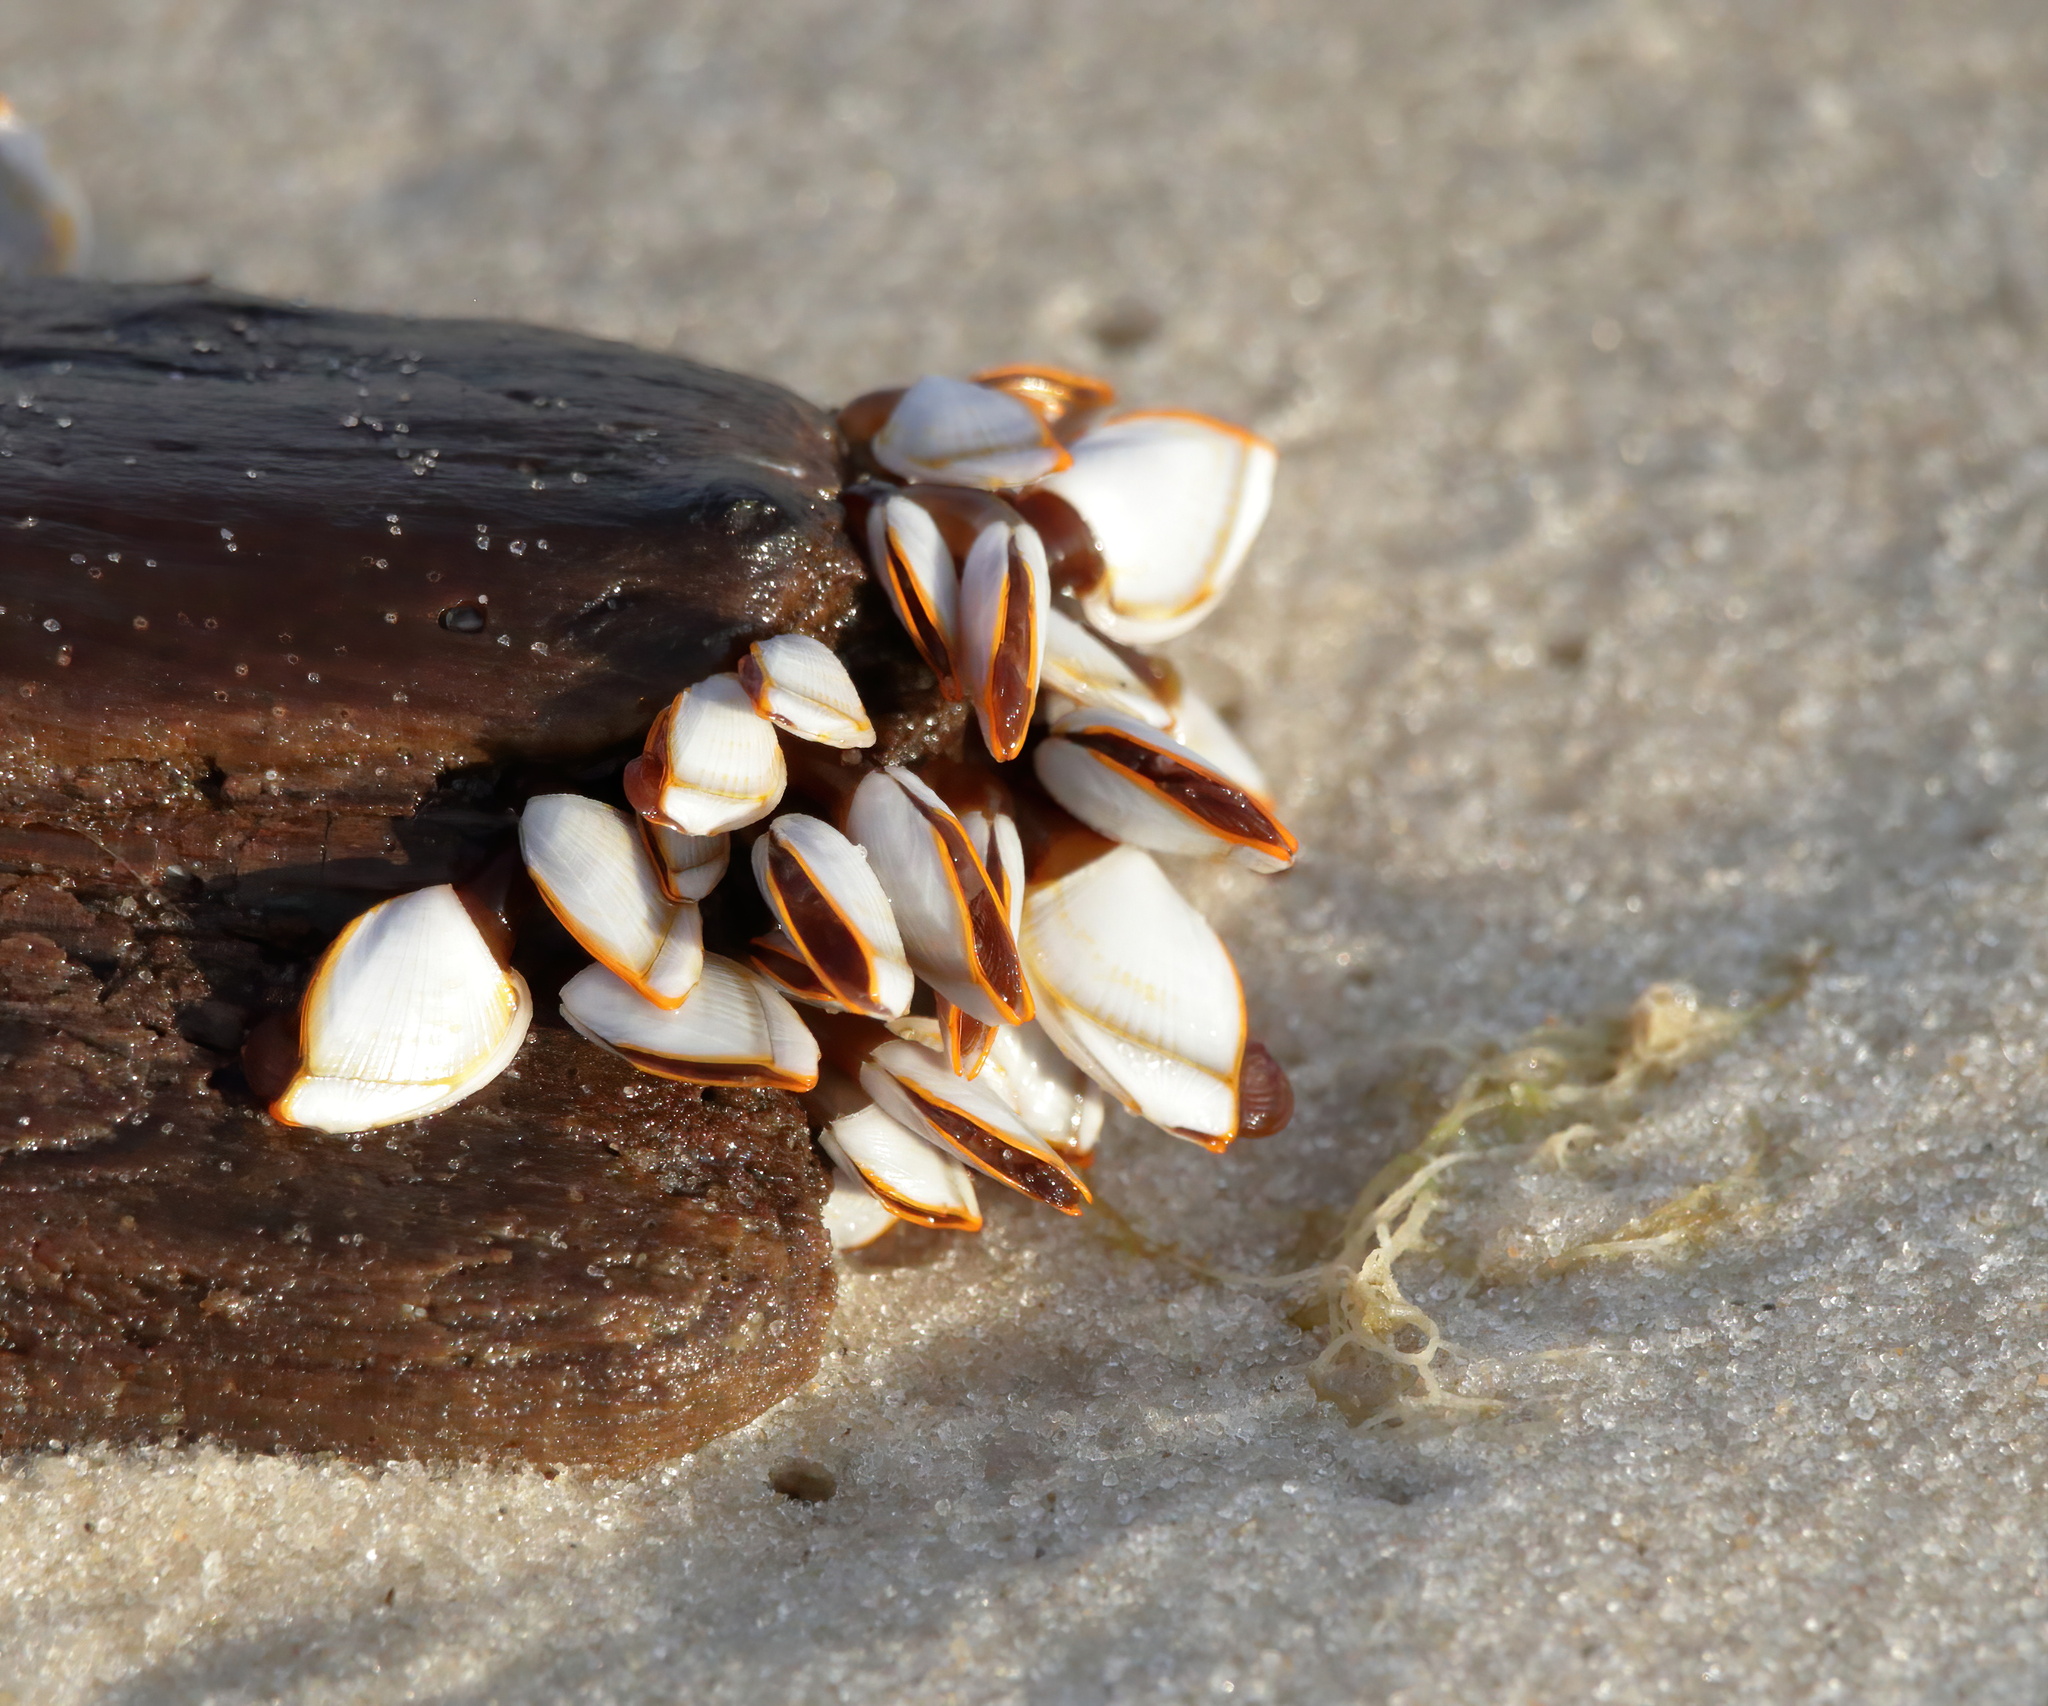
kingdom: Animalia
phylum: Arthropoda
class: Maxillopoda
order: Pedunculata
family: Lepadidae
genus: Lepas
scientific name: Lepas anserifera
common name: Goose barnacle
